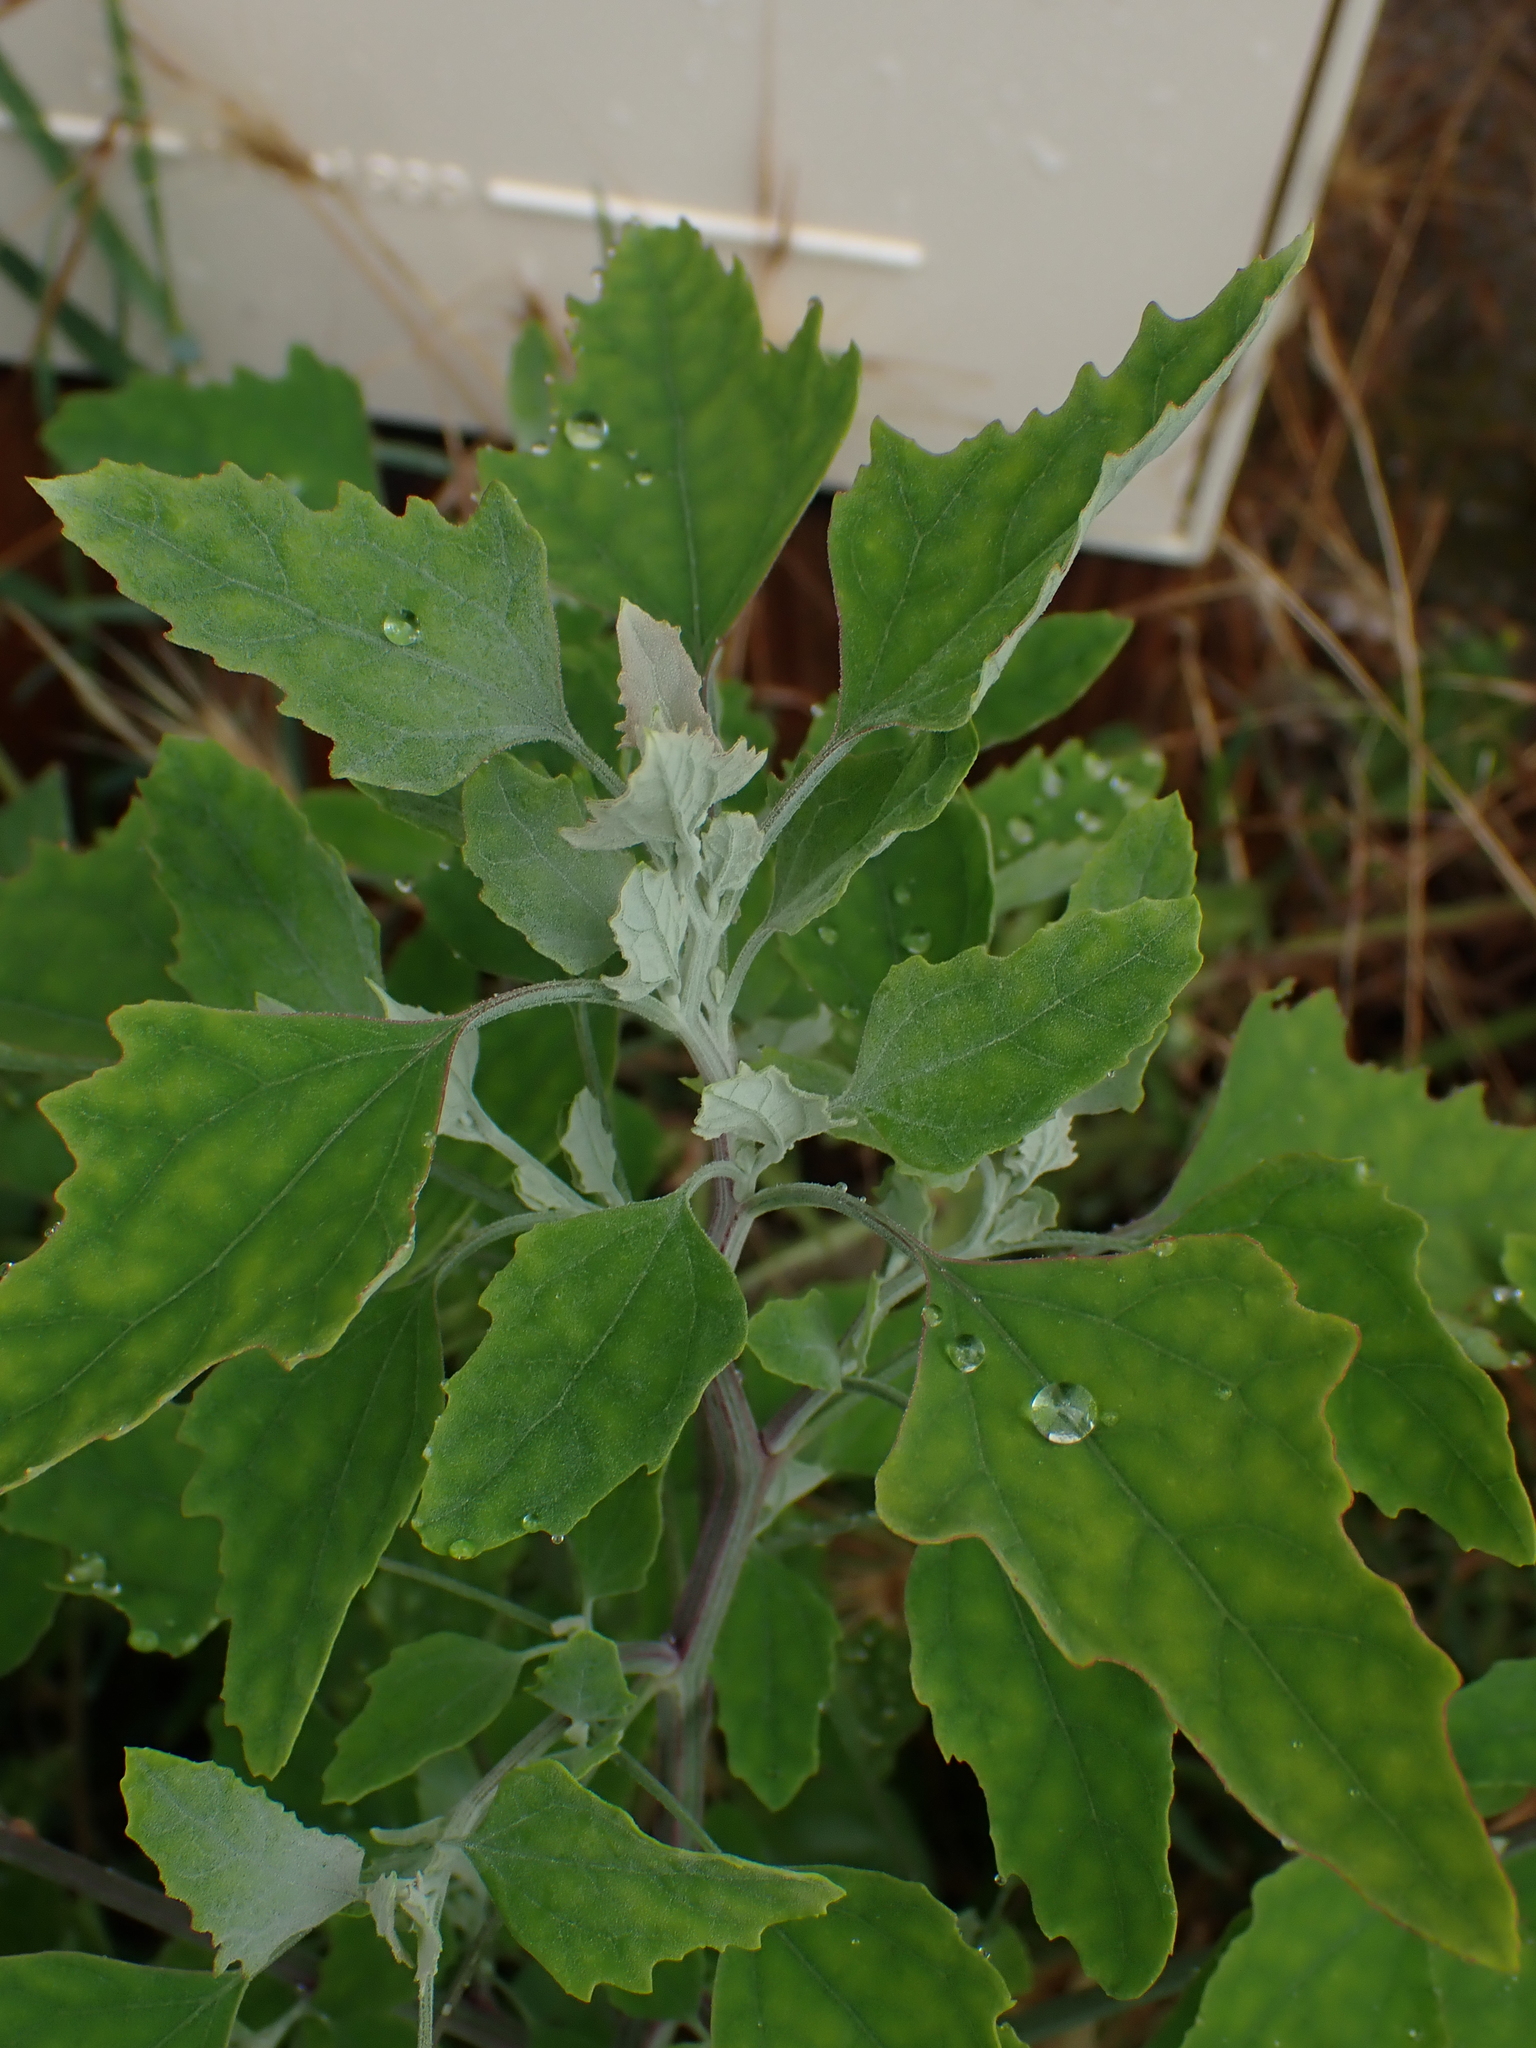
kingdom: Plantae
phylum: Tracheophyta
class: Magnoliopsida
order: Caryophyllales
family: Amaranthaceae
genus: Chenopodium
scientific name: Chenopodium album
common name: Fat-hen
